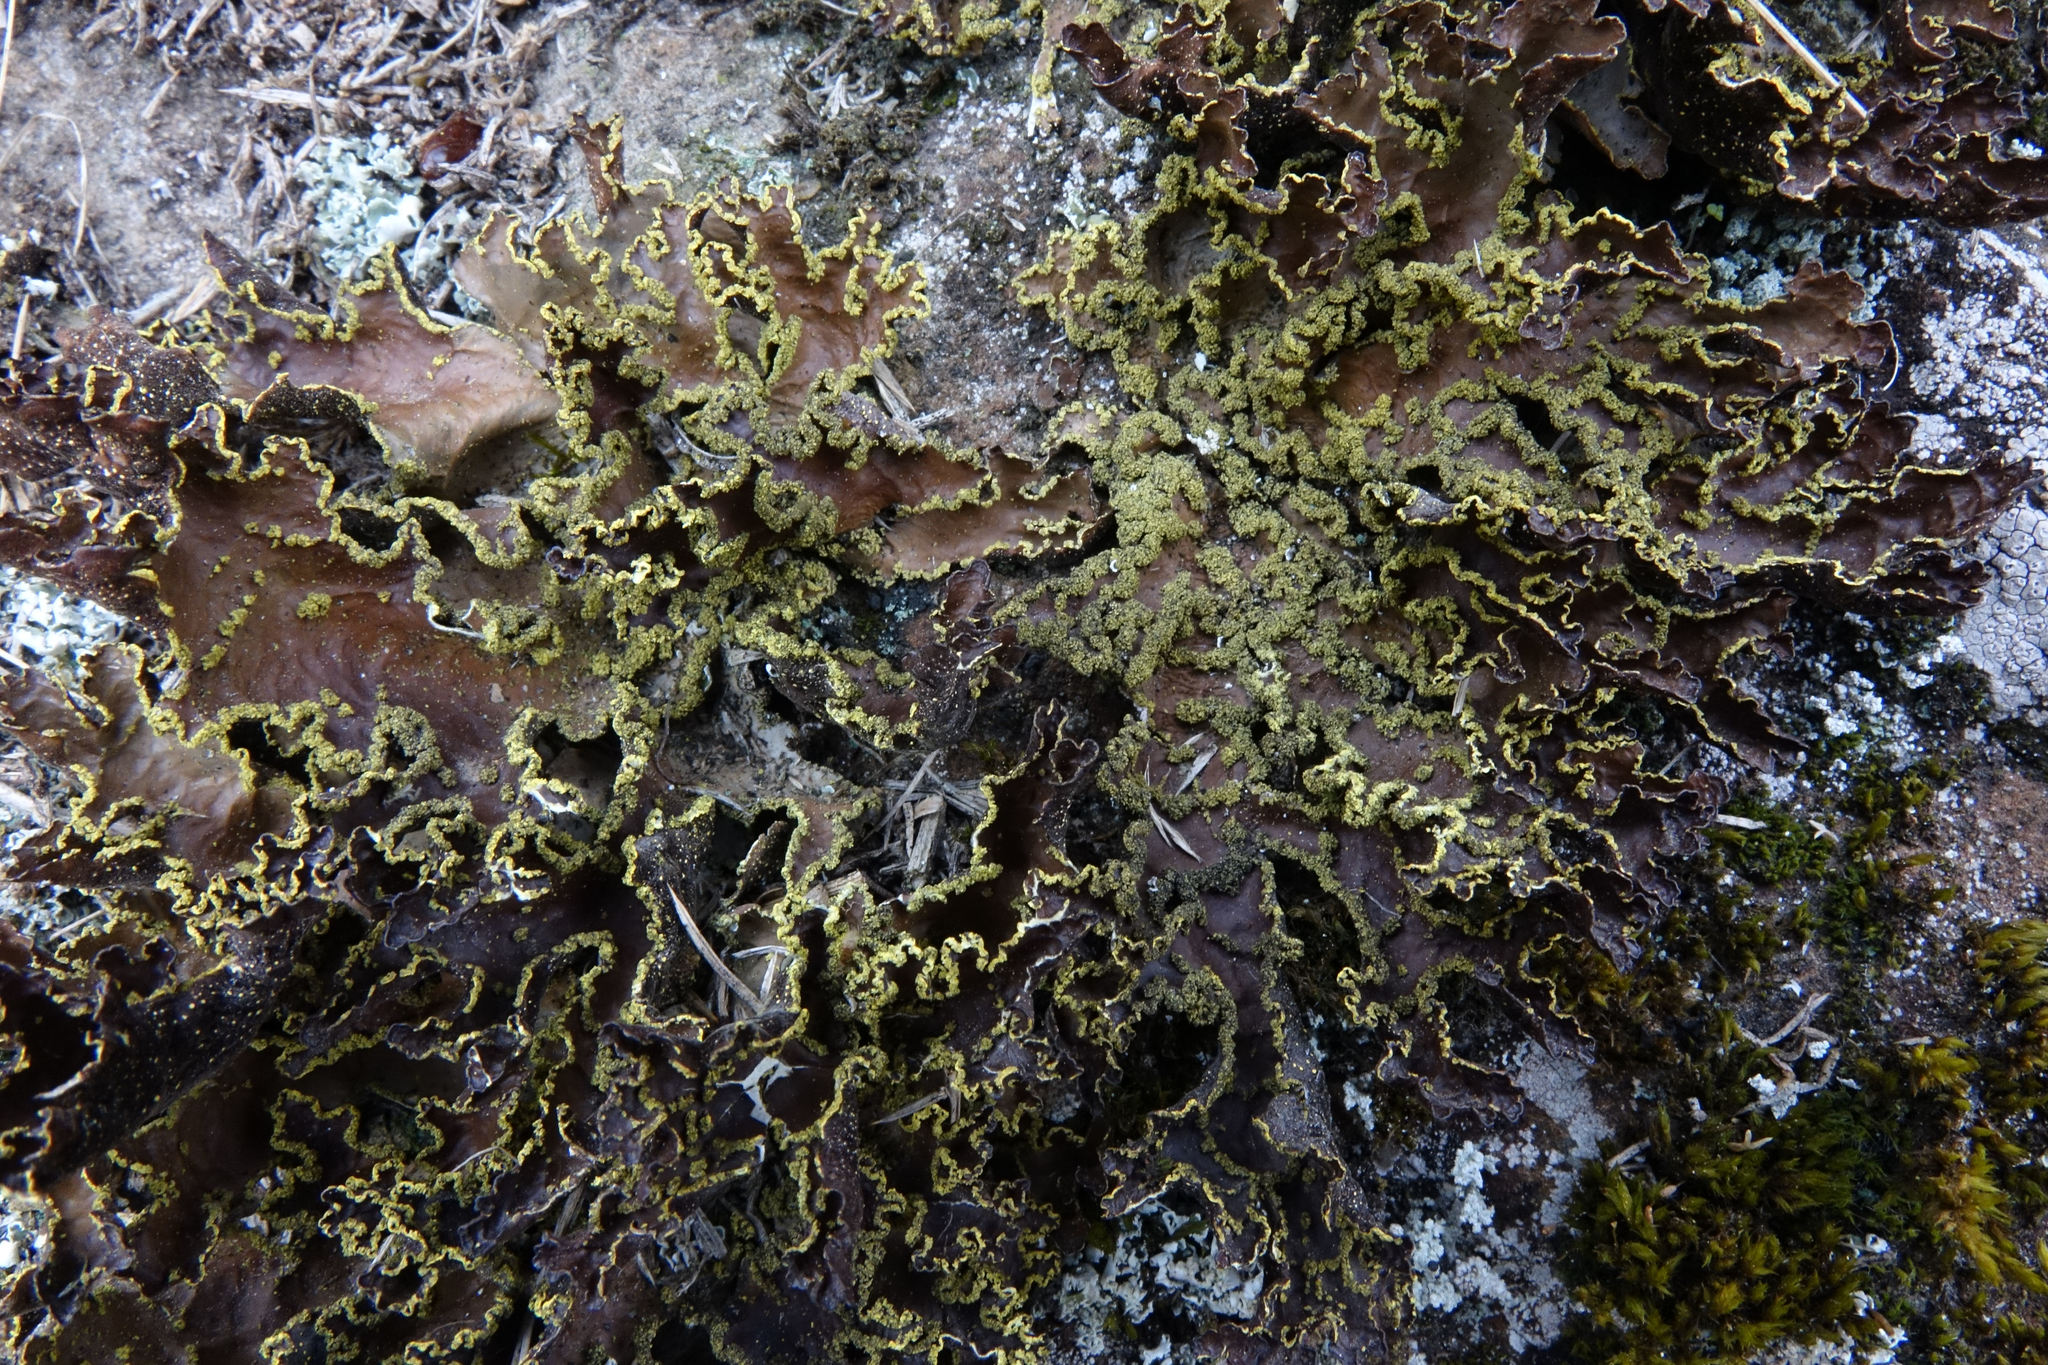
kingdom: Fungi
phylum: Ascomycota
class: Lecanoromycetes
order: Peltigerales
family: Lobariaceae
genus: Pseudocyphellaria
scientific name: Pseudocyphellaria neglecta
